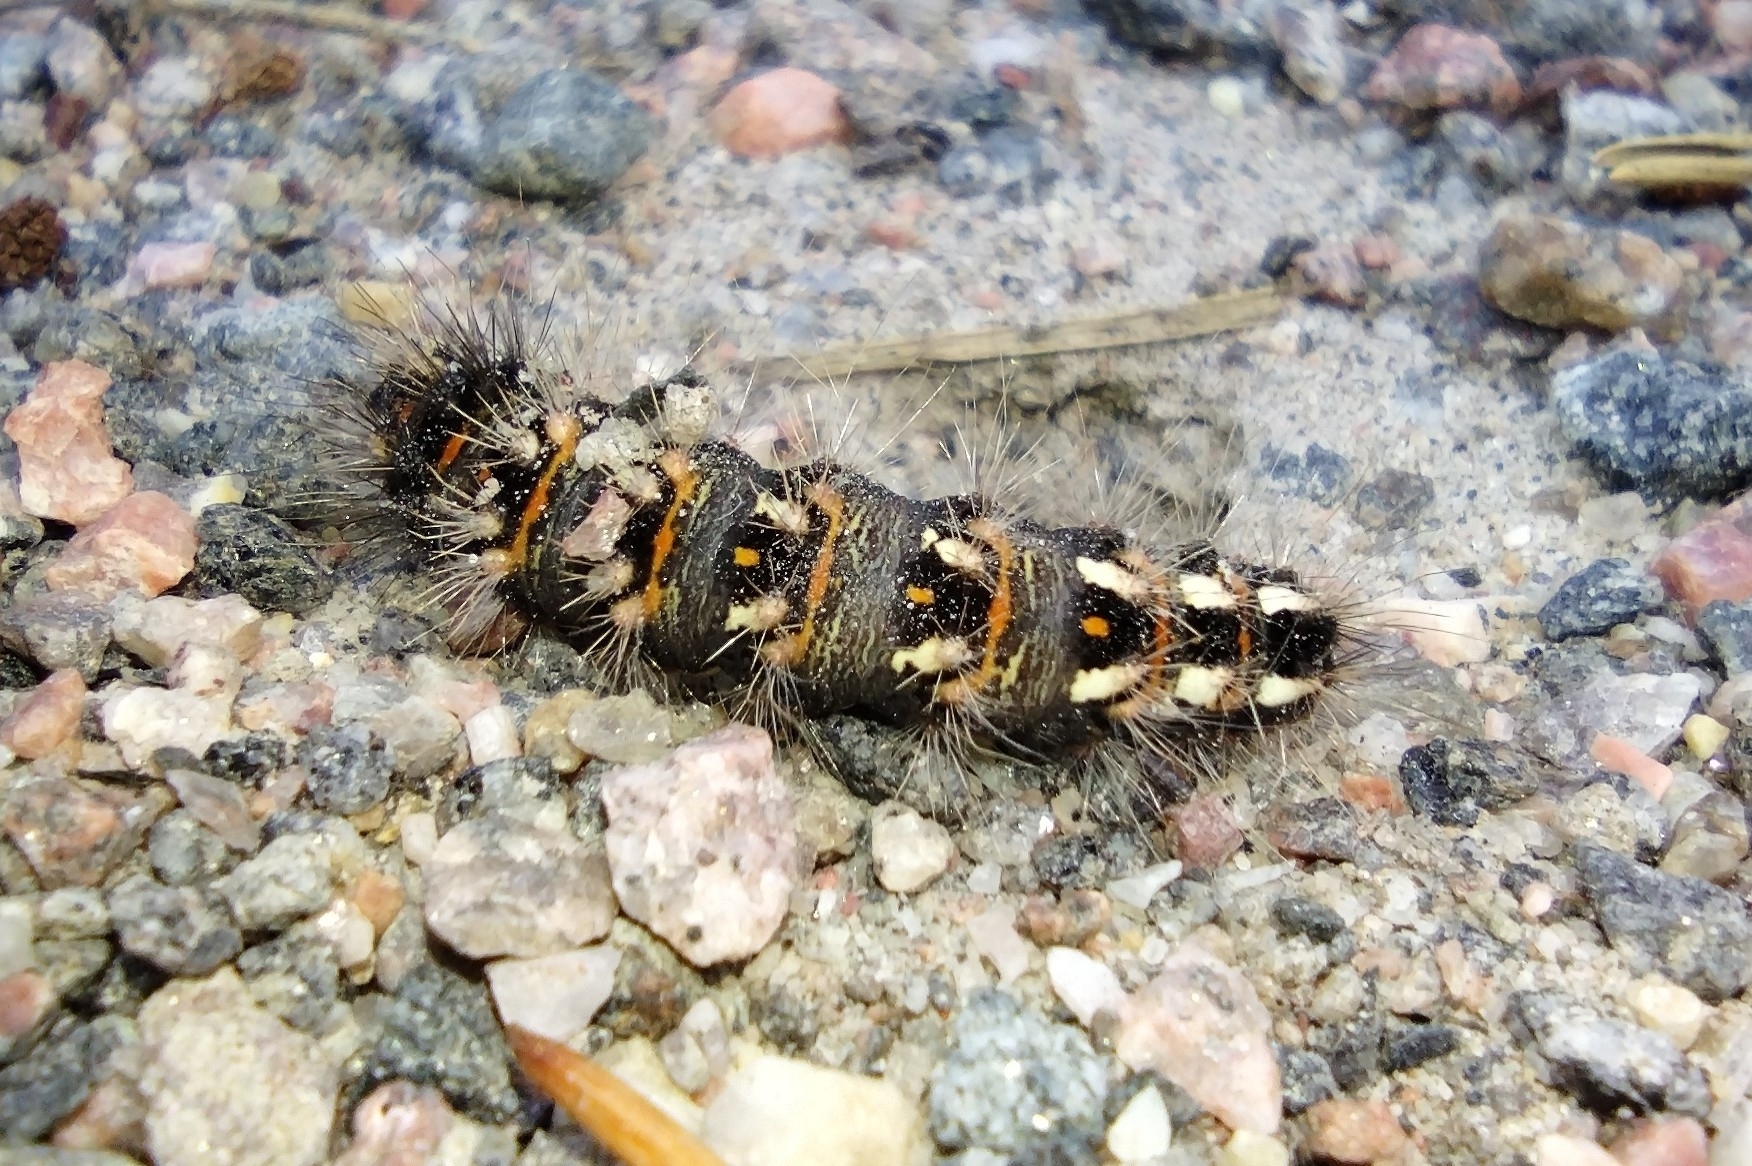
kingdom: Animalia
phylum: Arthropoda
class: Insecta
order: Lepidoptera
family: Noctuidae
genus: Acronicta
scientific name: Acronicta rumicis
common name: Knot grass
